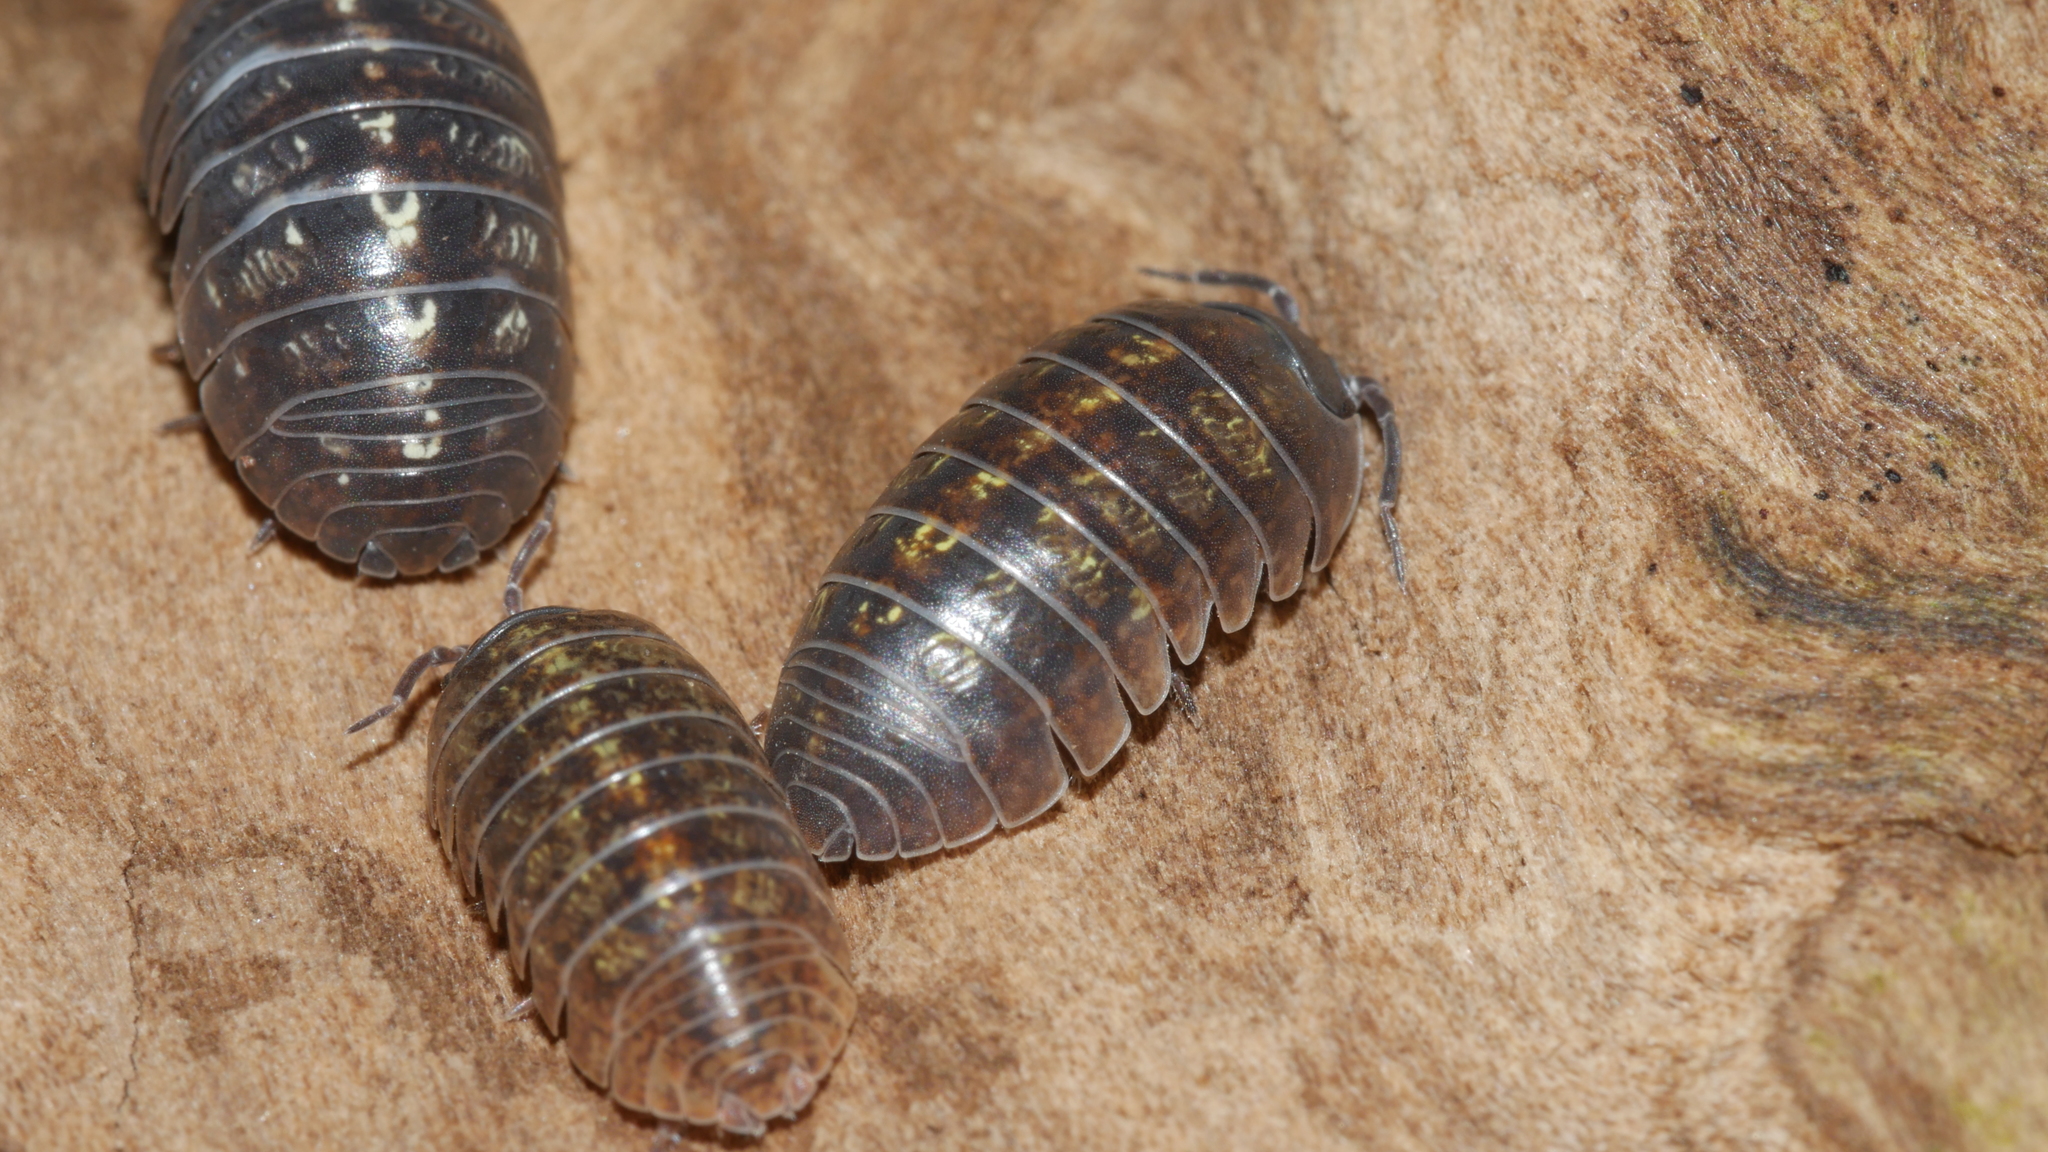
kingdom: Animalia
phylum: Arthropoda
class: Malacostraca
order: Isopoda
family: Armadillidiidae
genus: Armadillidium
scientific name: Armadillidium vulgare
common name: Common pill woodlouse
